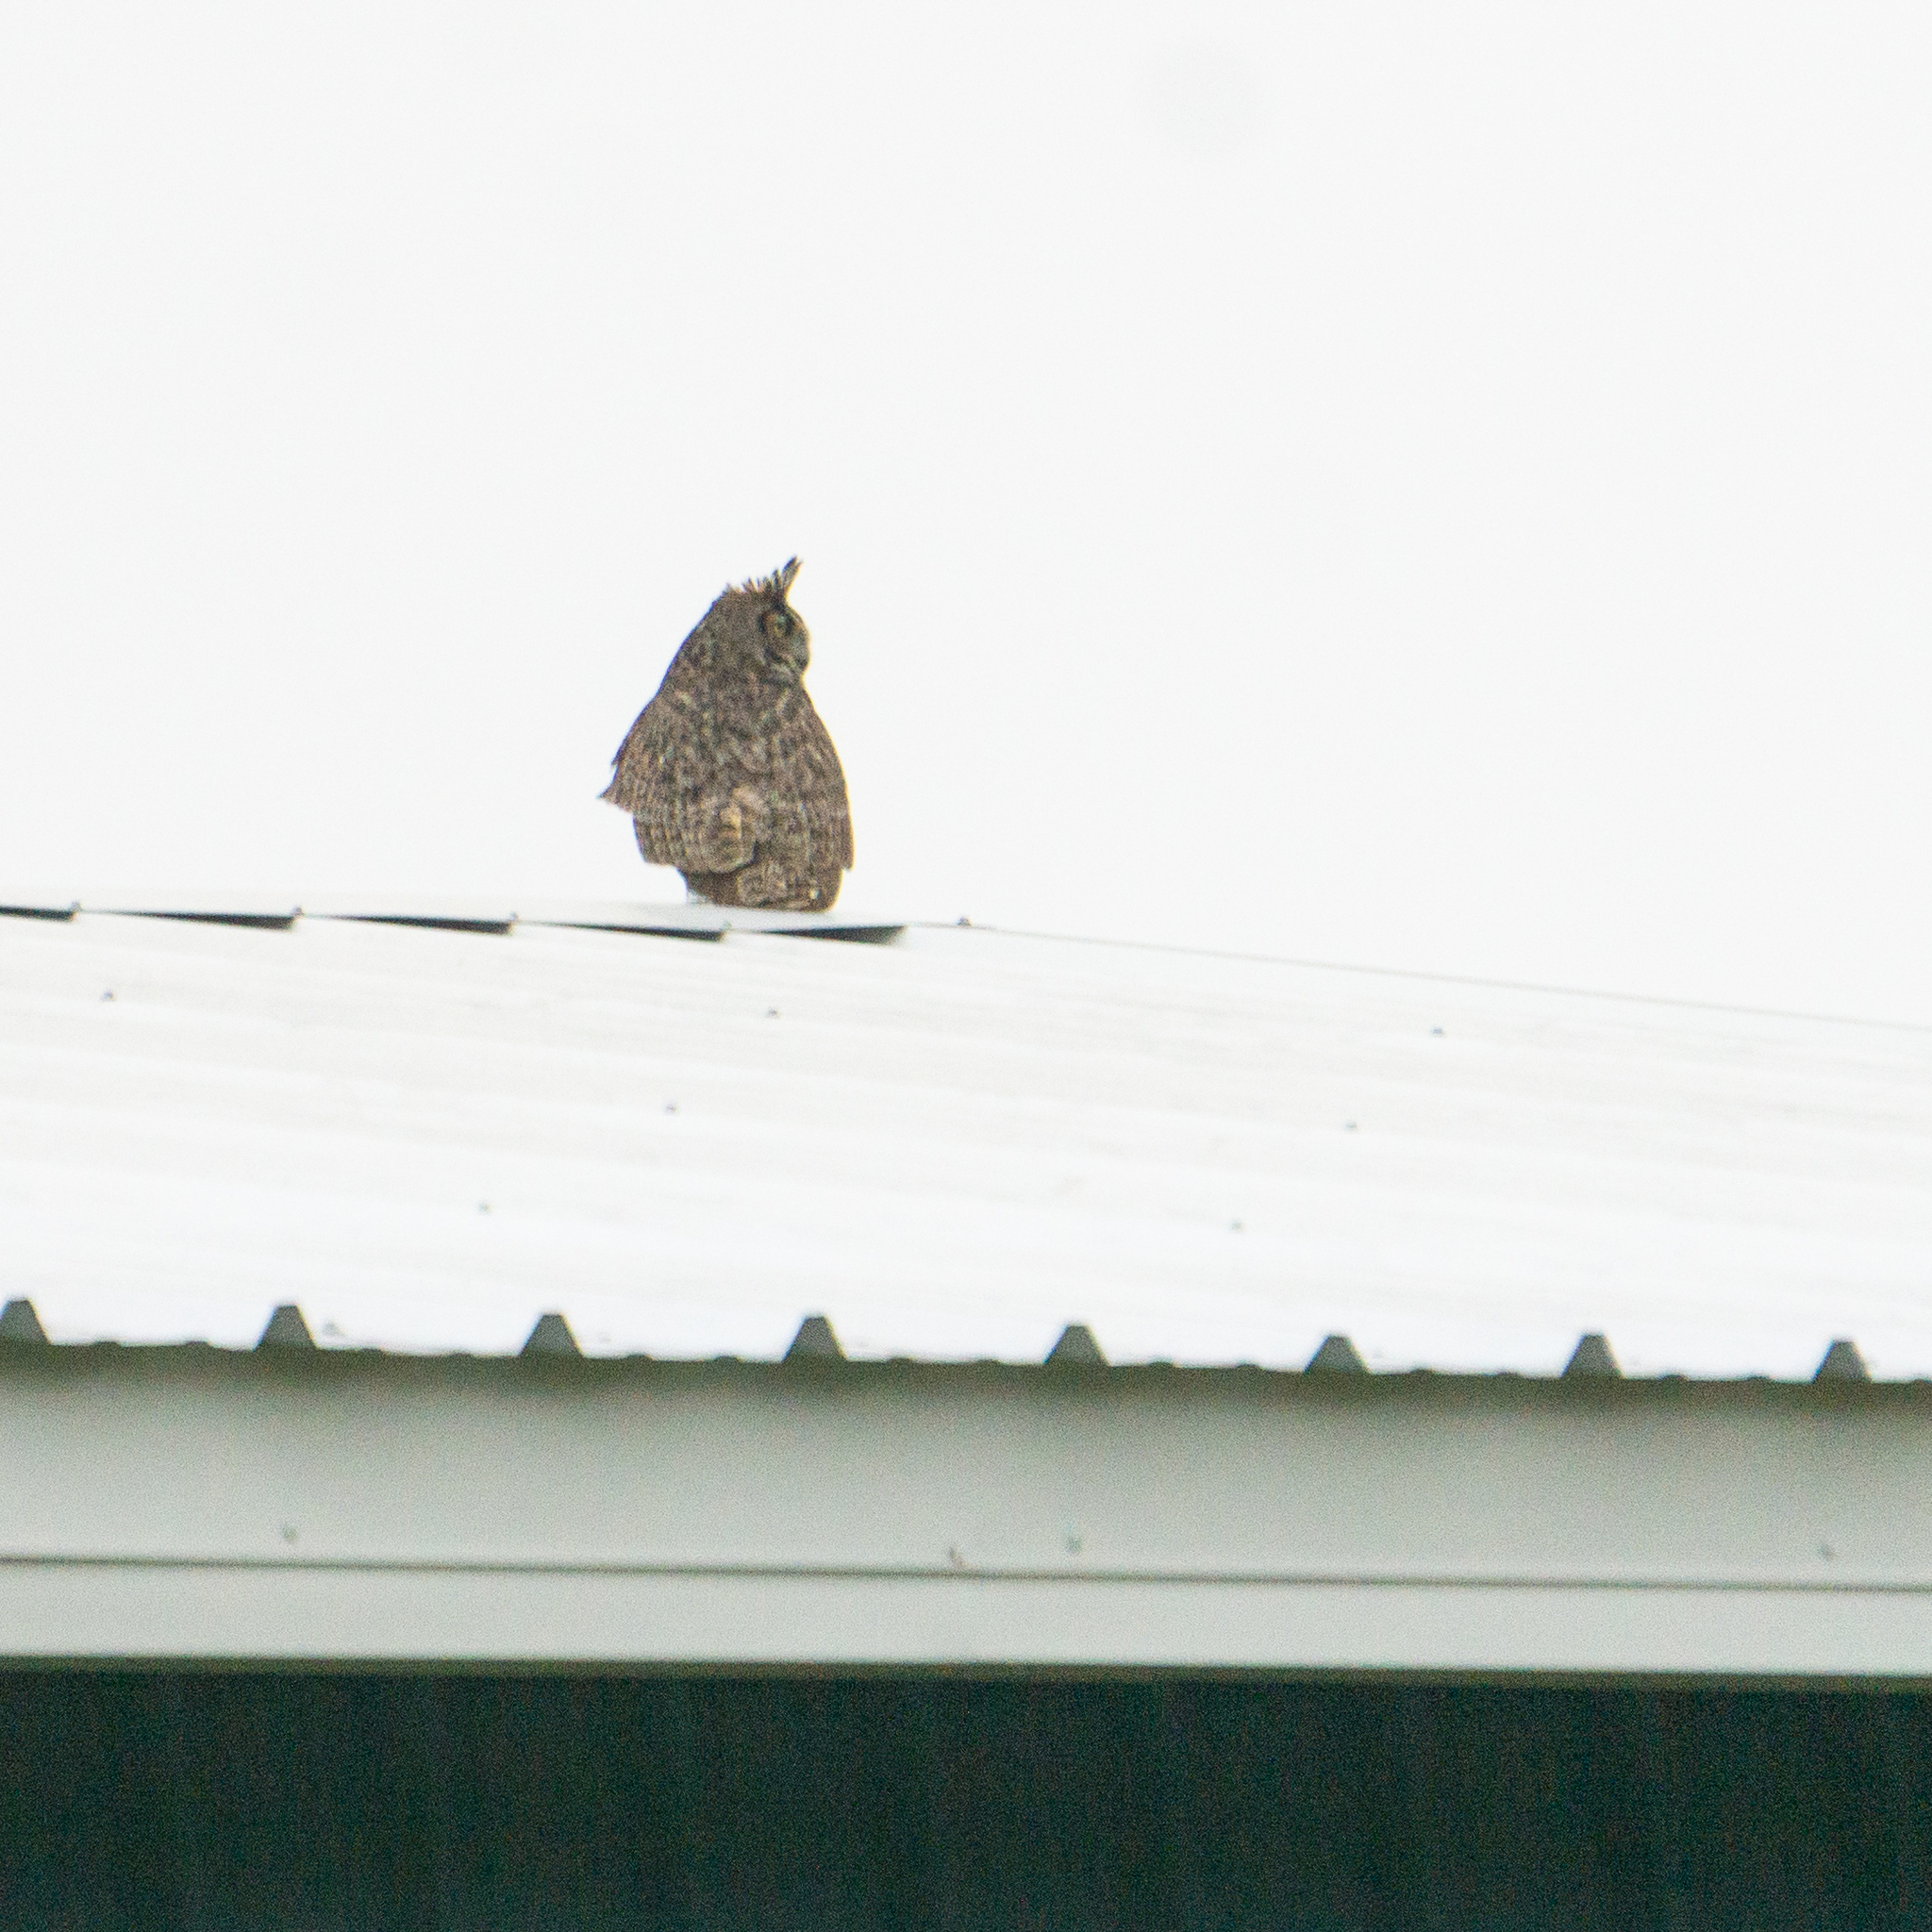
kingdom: Animalia
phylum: Chordata
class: Aves
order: Strigiformes
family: Strigidae
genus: Bubo
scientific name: Bubo virginianus
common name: Great horned owl
